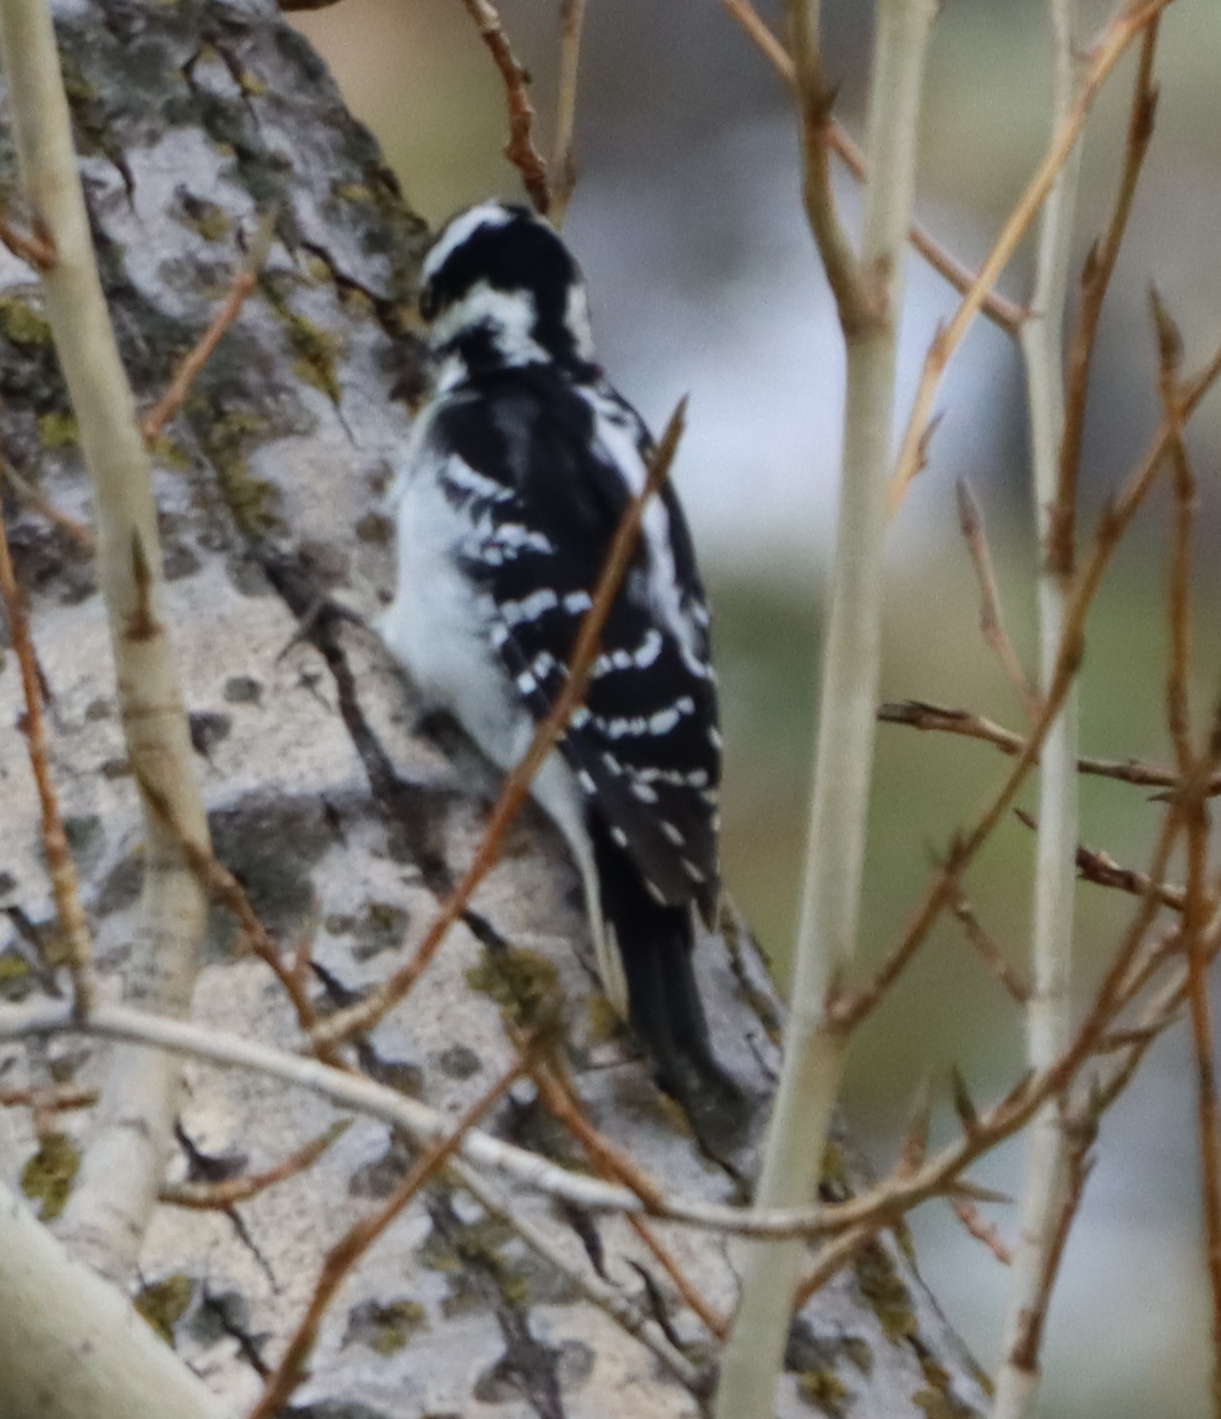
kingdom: Animalia
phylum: Chordata
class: Aves
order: Piciformes
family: Picidae
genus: Leuconotopicus
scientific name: Leuconotopicus villosus
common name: Hairy woodpecker
